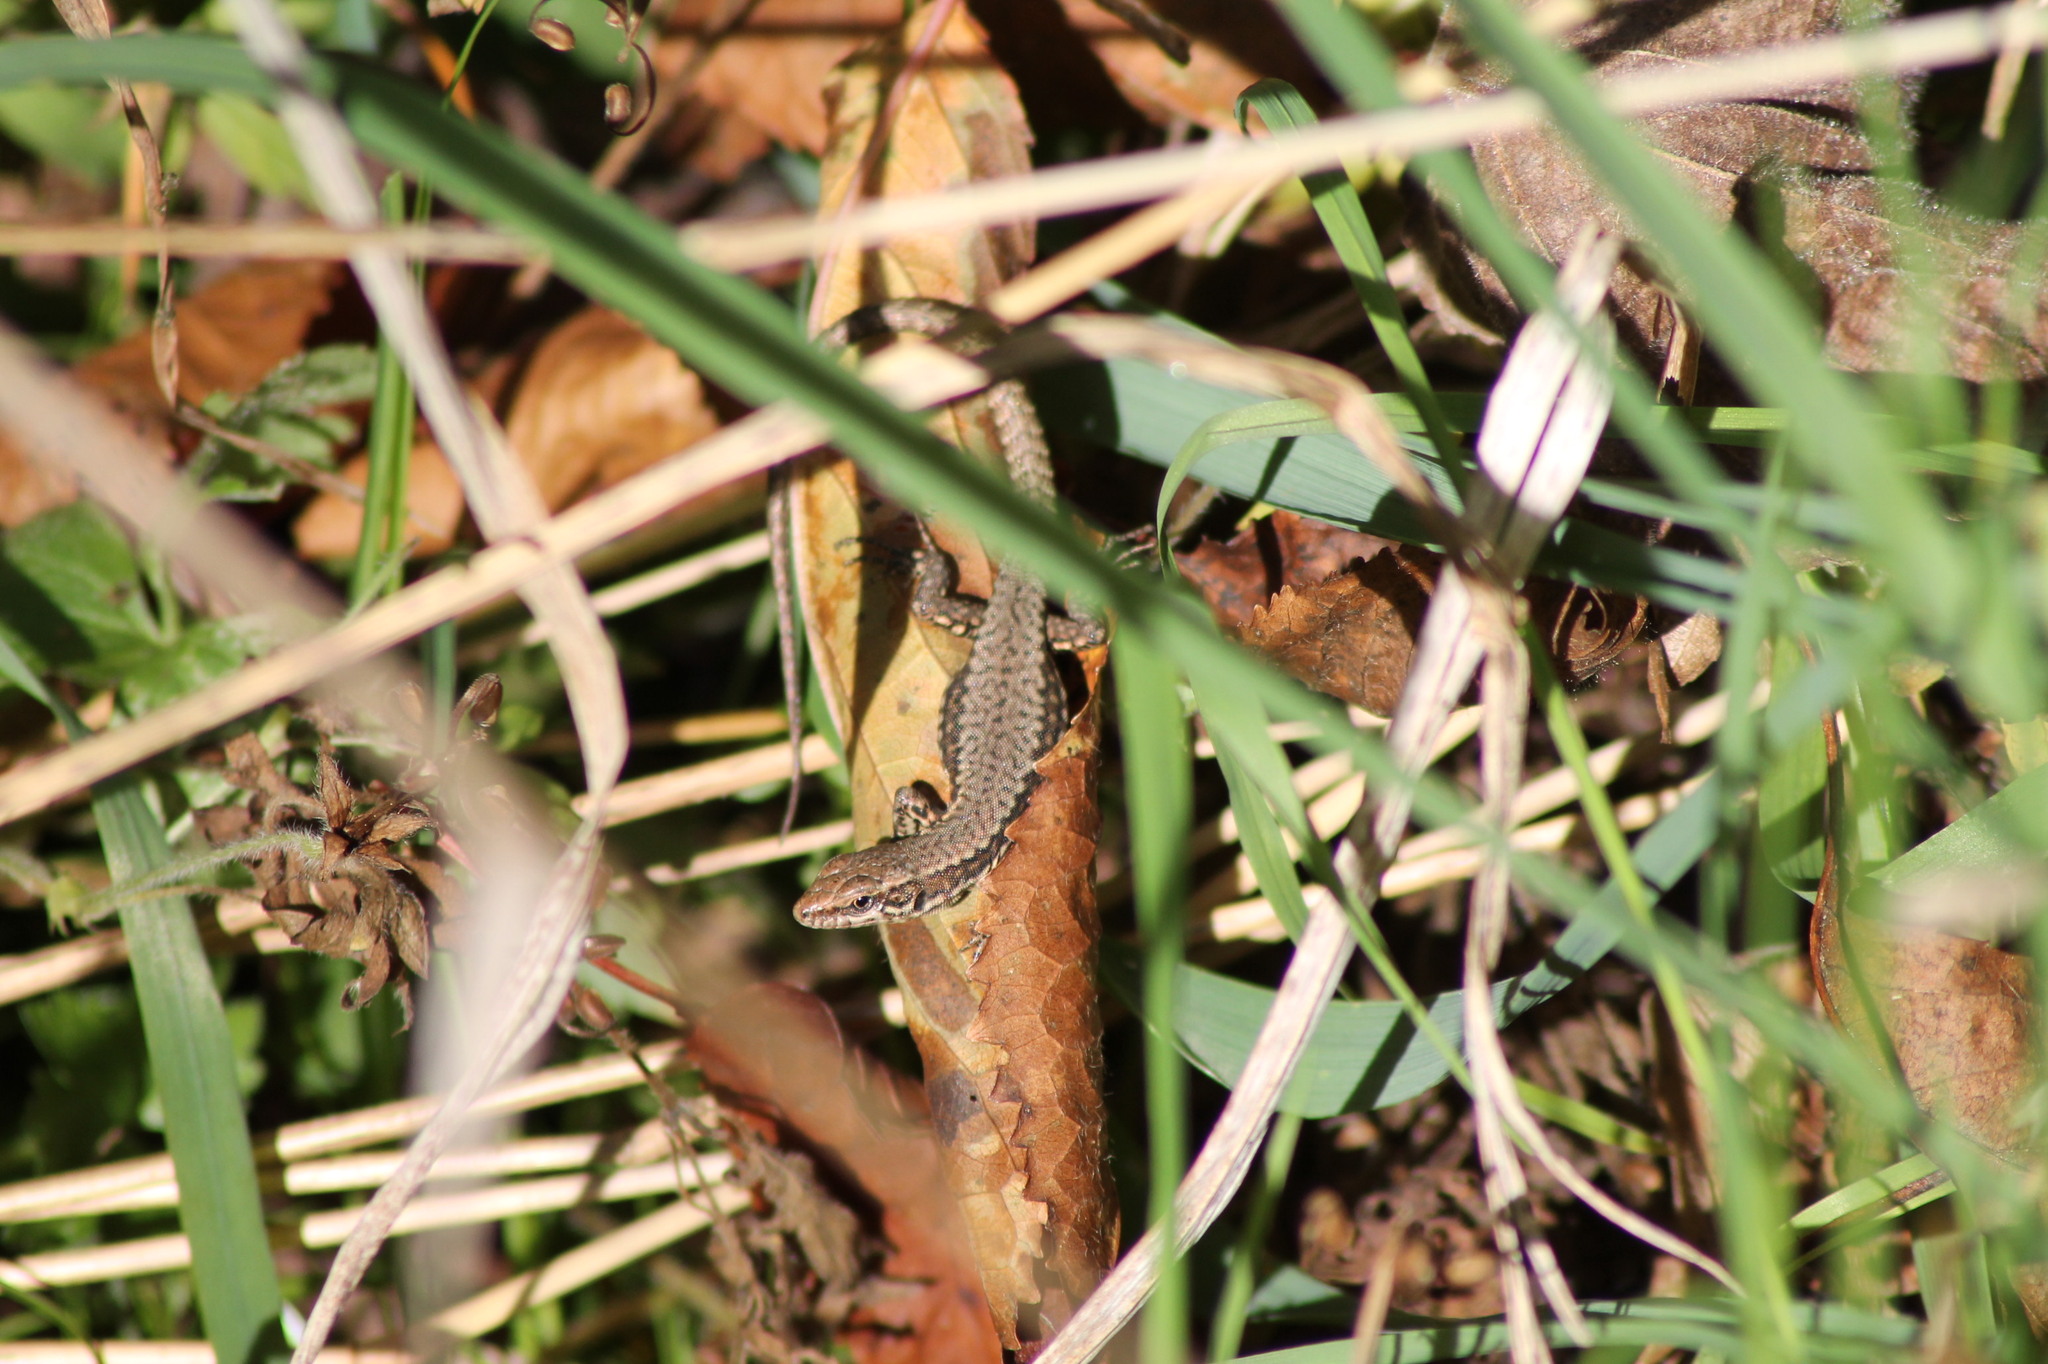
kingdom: Animalia
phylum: Chordata
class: Squamata
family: Lacertidae
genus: Podarcis
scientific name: Podarcis muralis
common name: Common wall lizard
